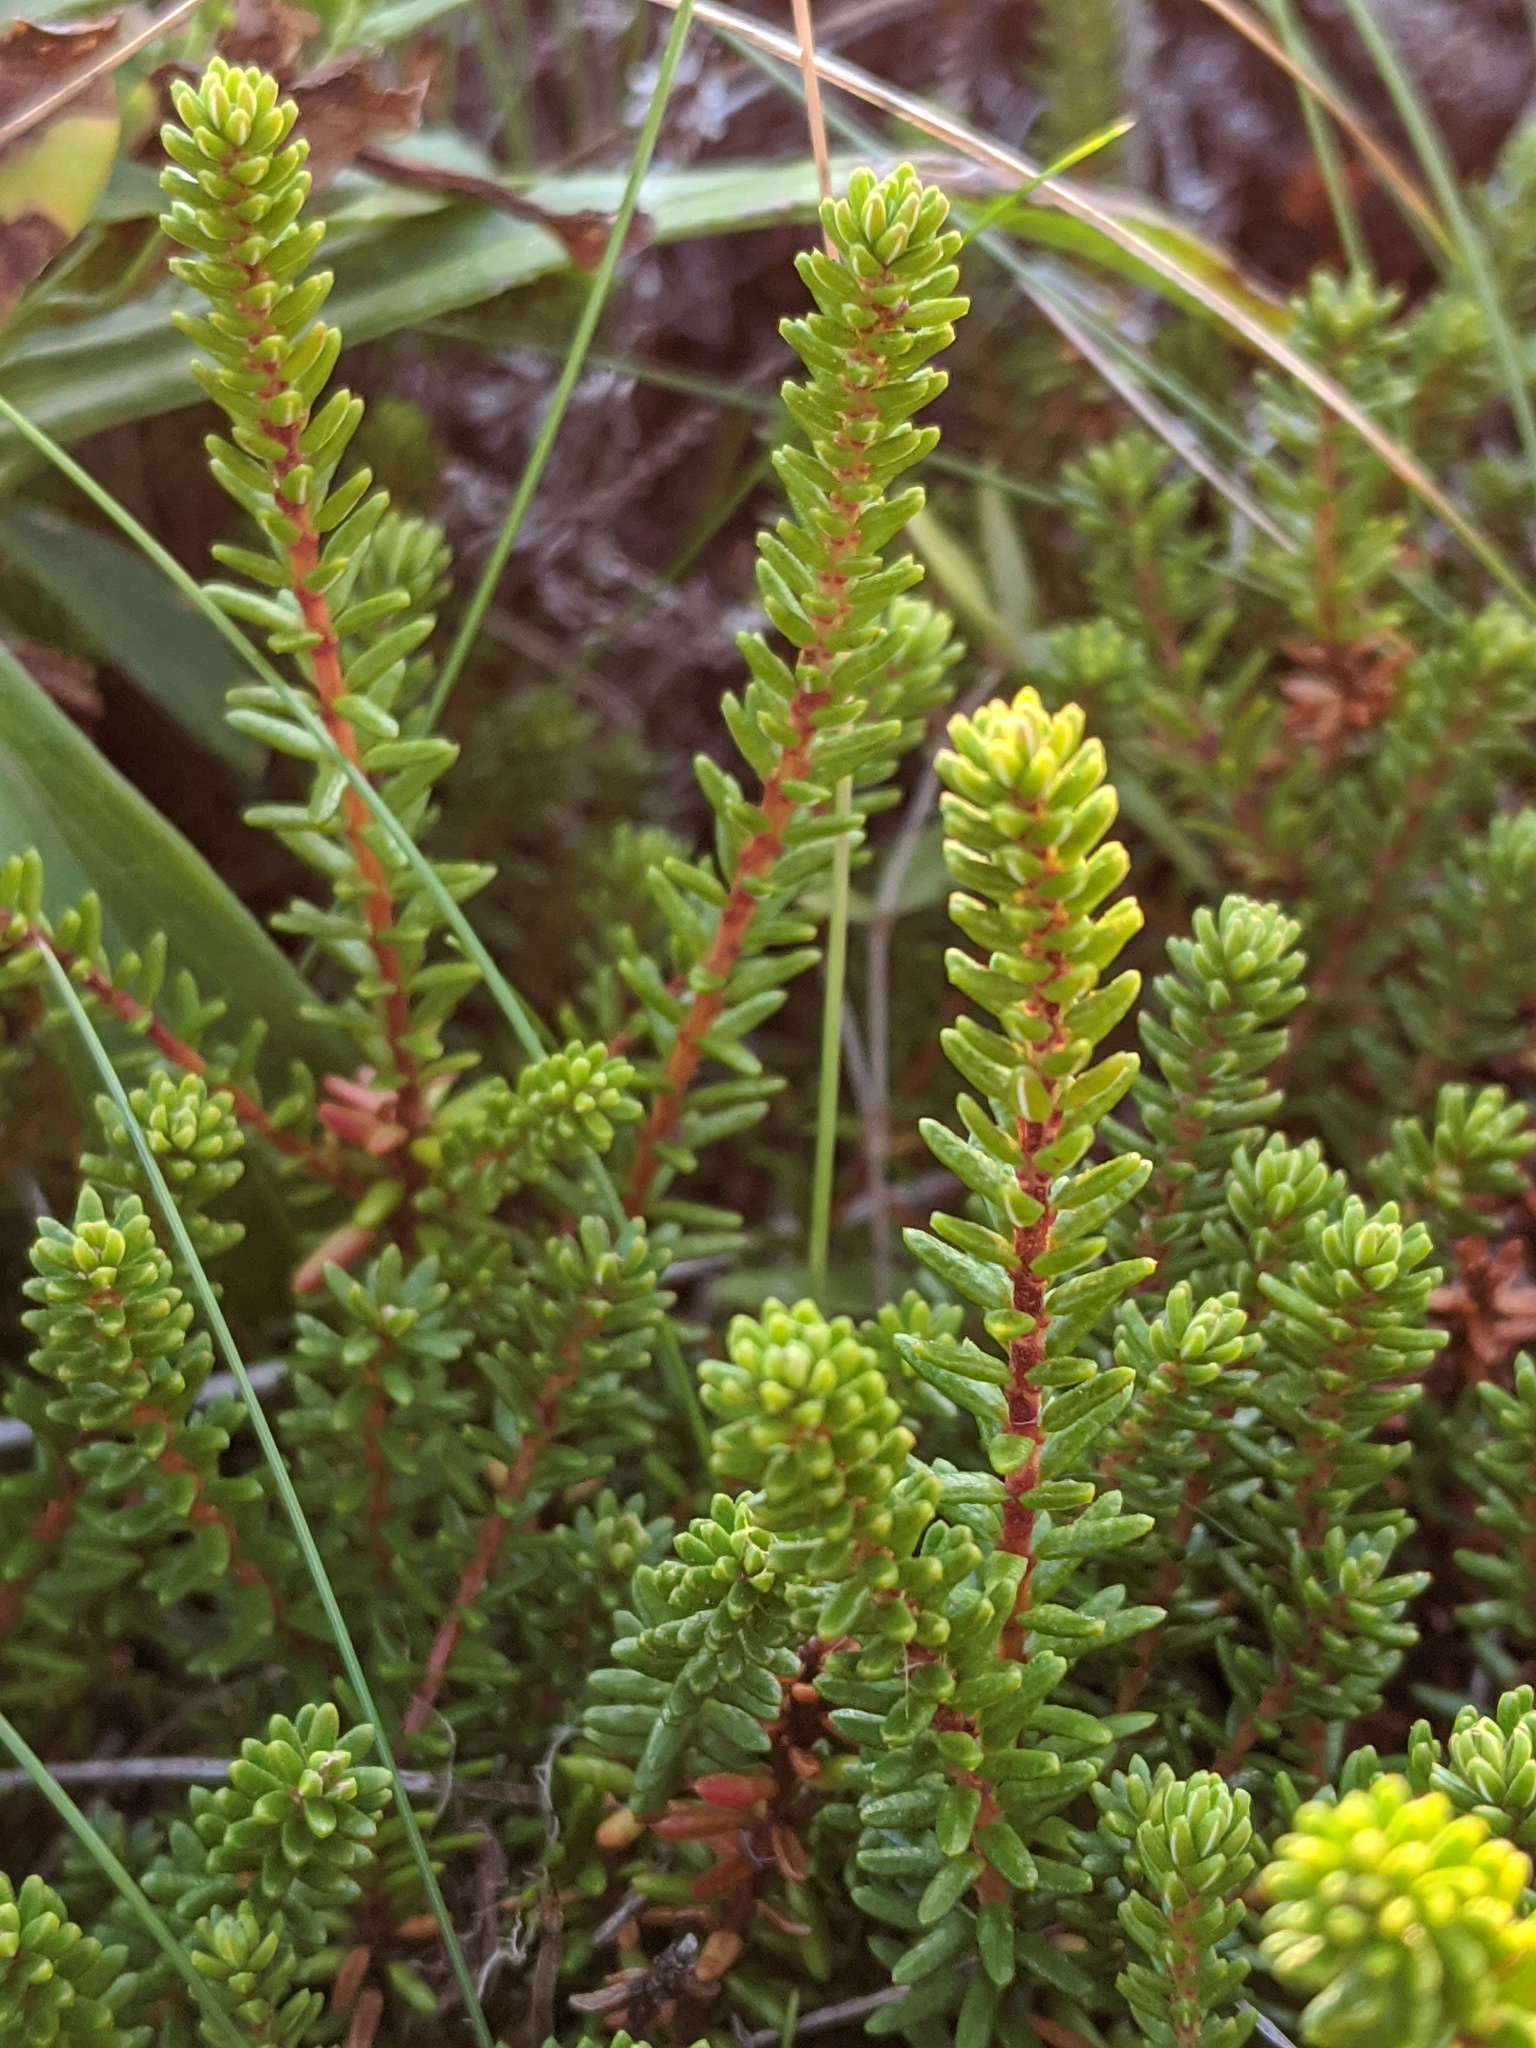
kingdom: Plantae
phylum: Tracheophyta
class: Magnoliopsida
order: Ericales
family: Ericaceae
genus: Empetrum
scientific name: Empetrum nigrum
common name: Black crowberry
